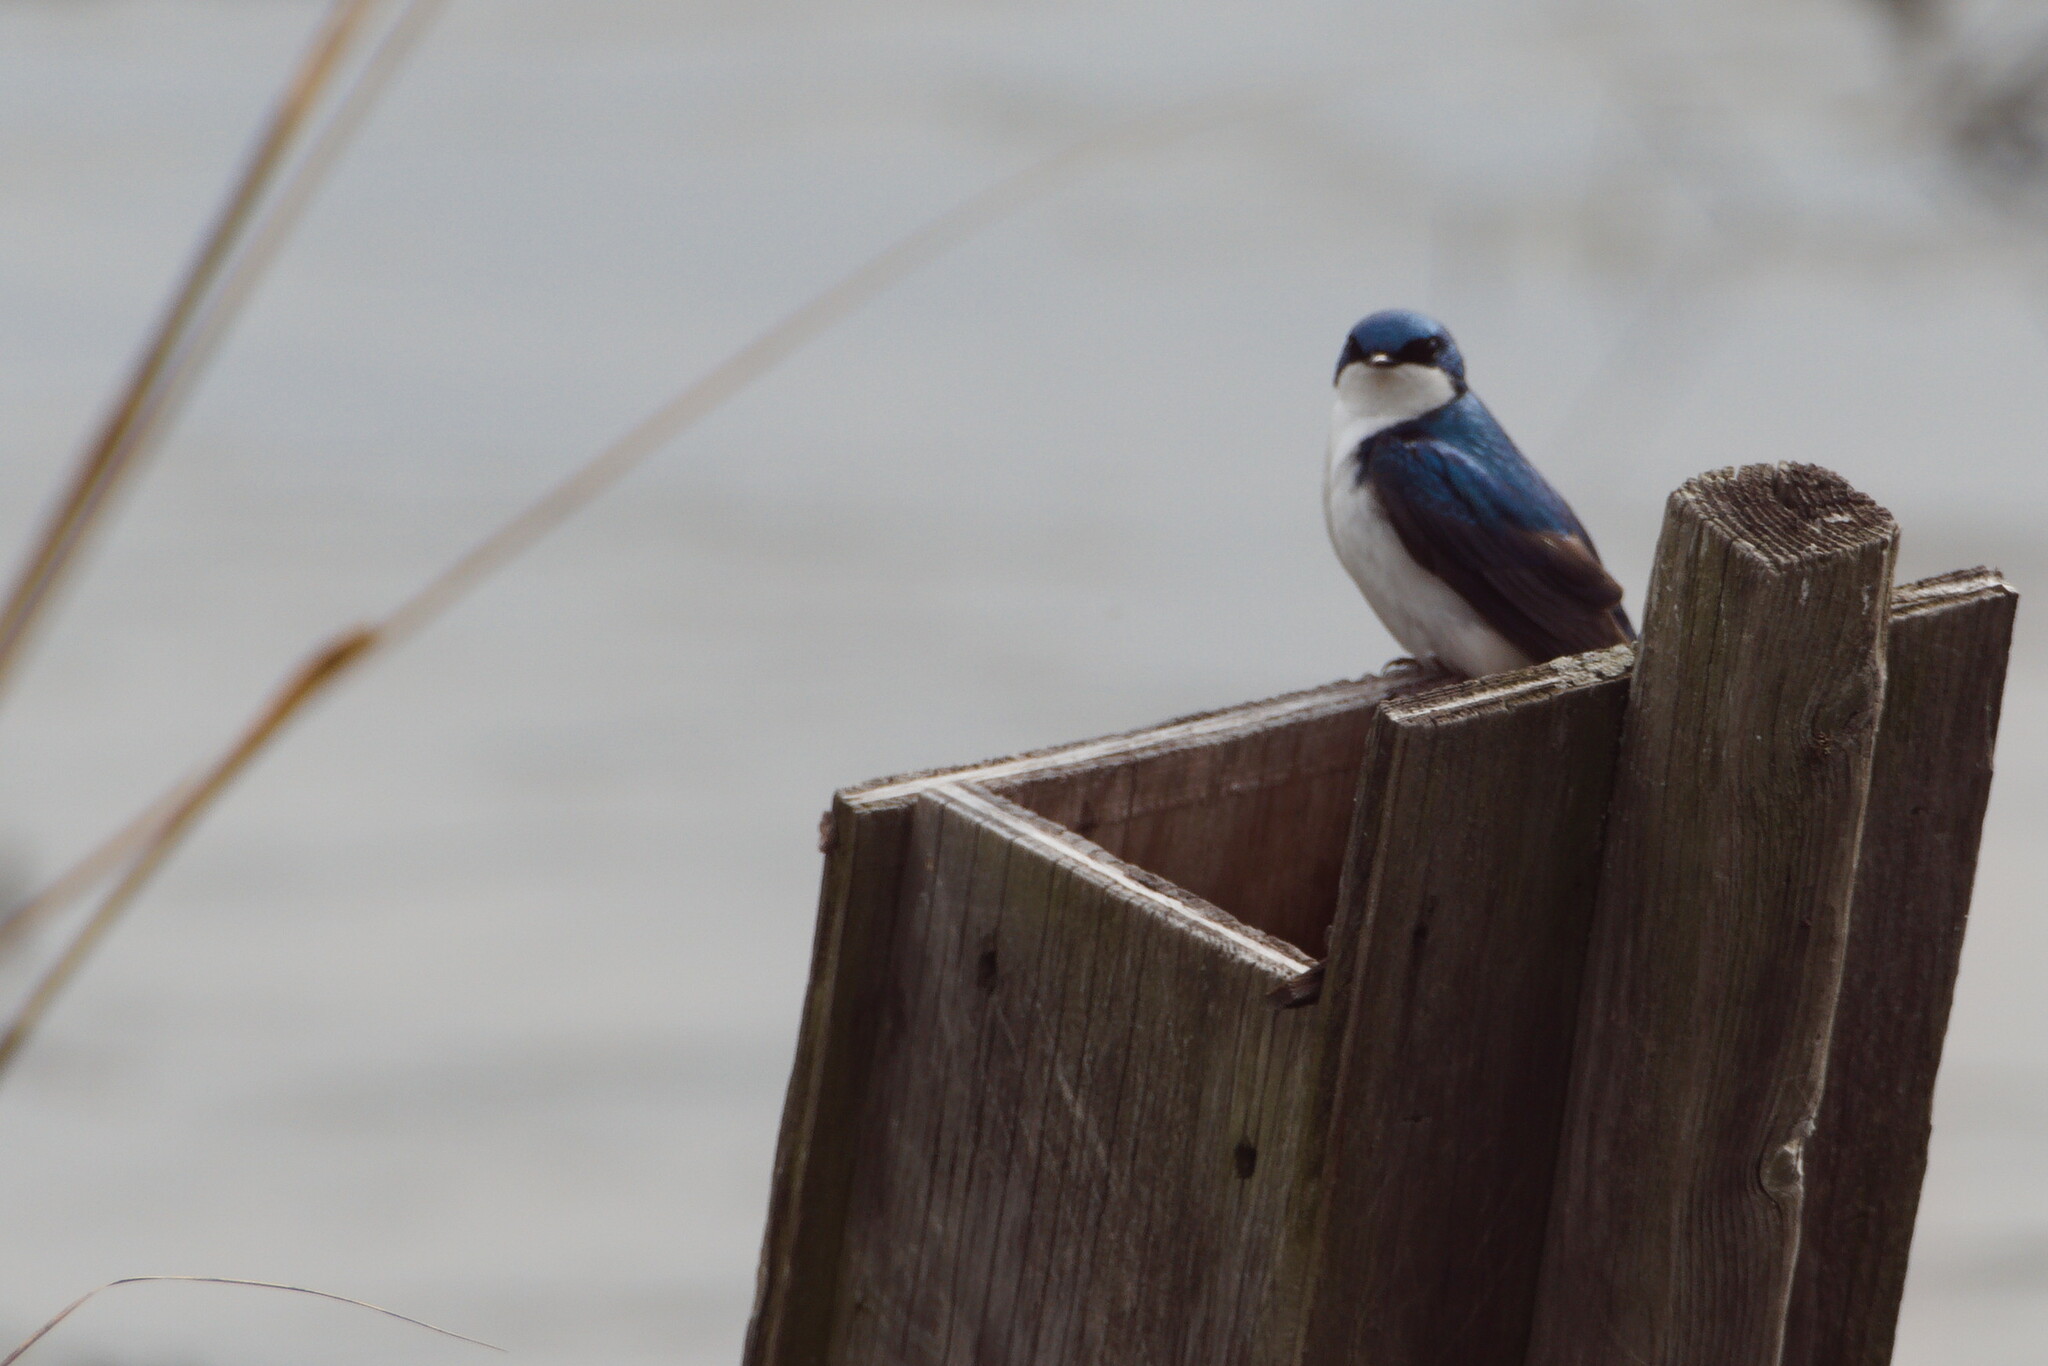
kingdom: Animalia
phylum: Chordata
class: Aves
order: Passeriformes
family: Hirundinidae
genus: Tachycineta
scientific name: Tachycineta bicolor
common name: Tree swallow
